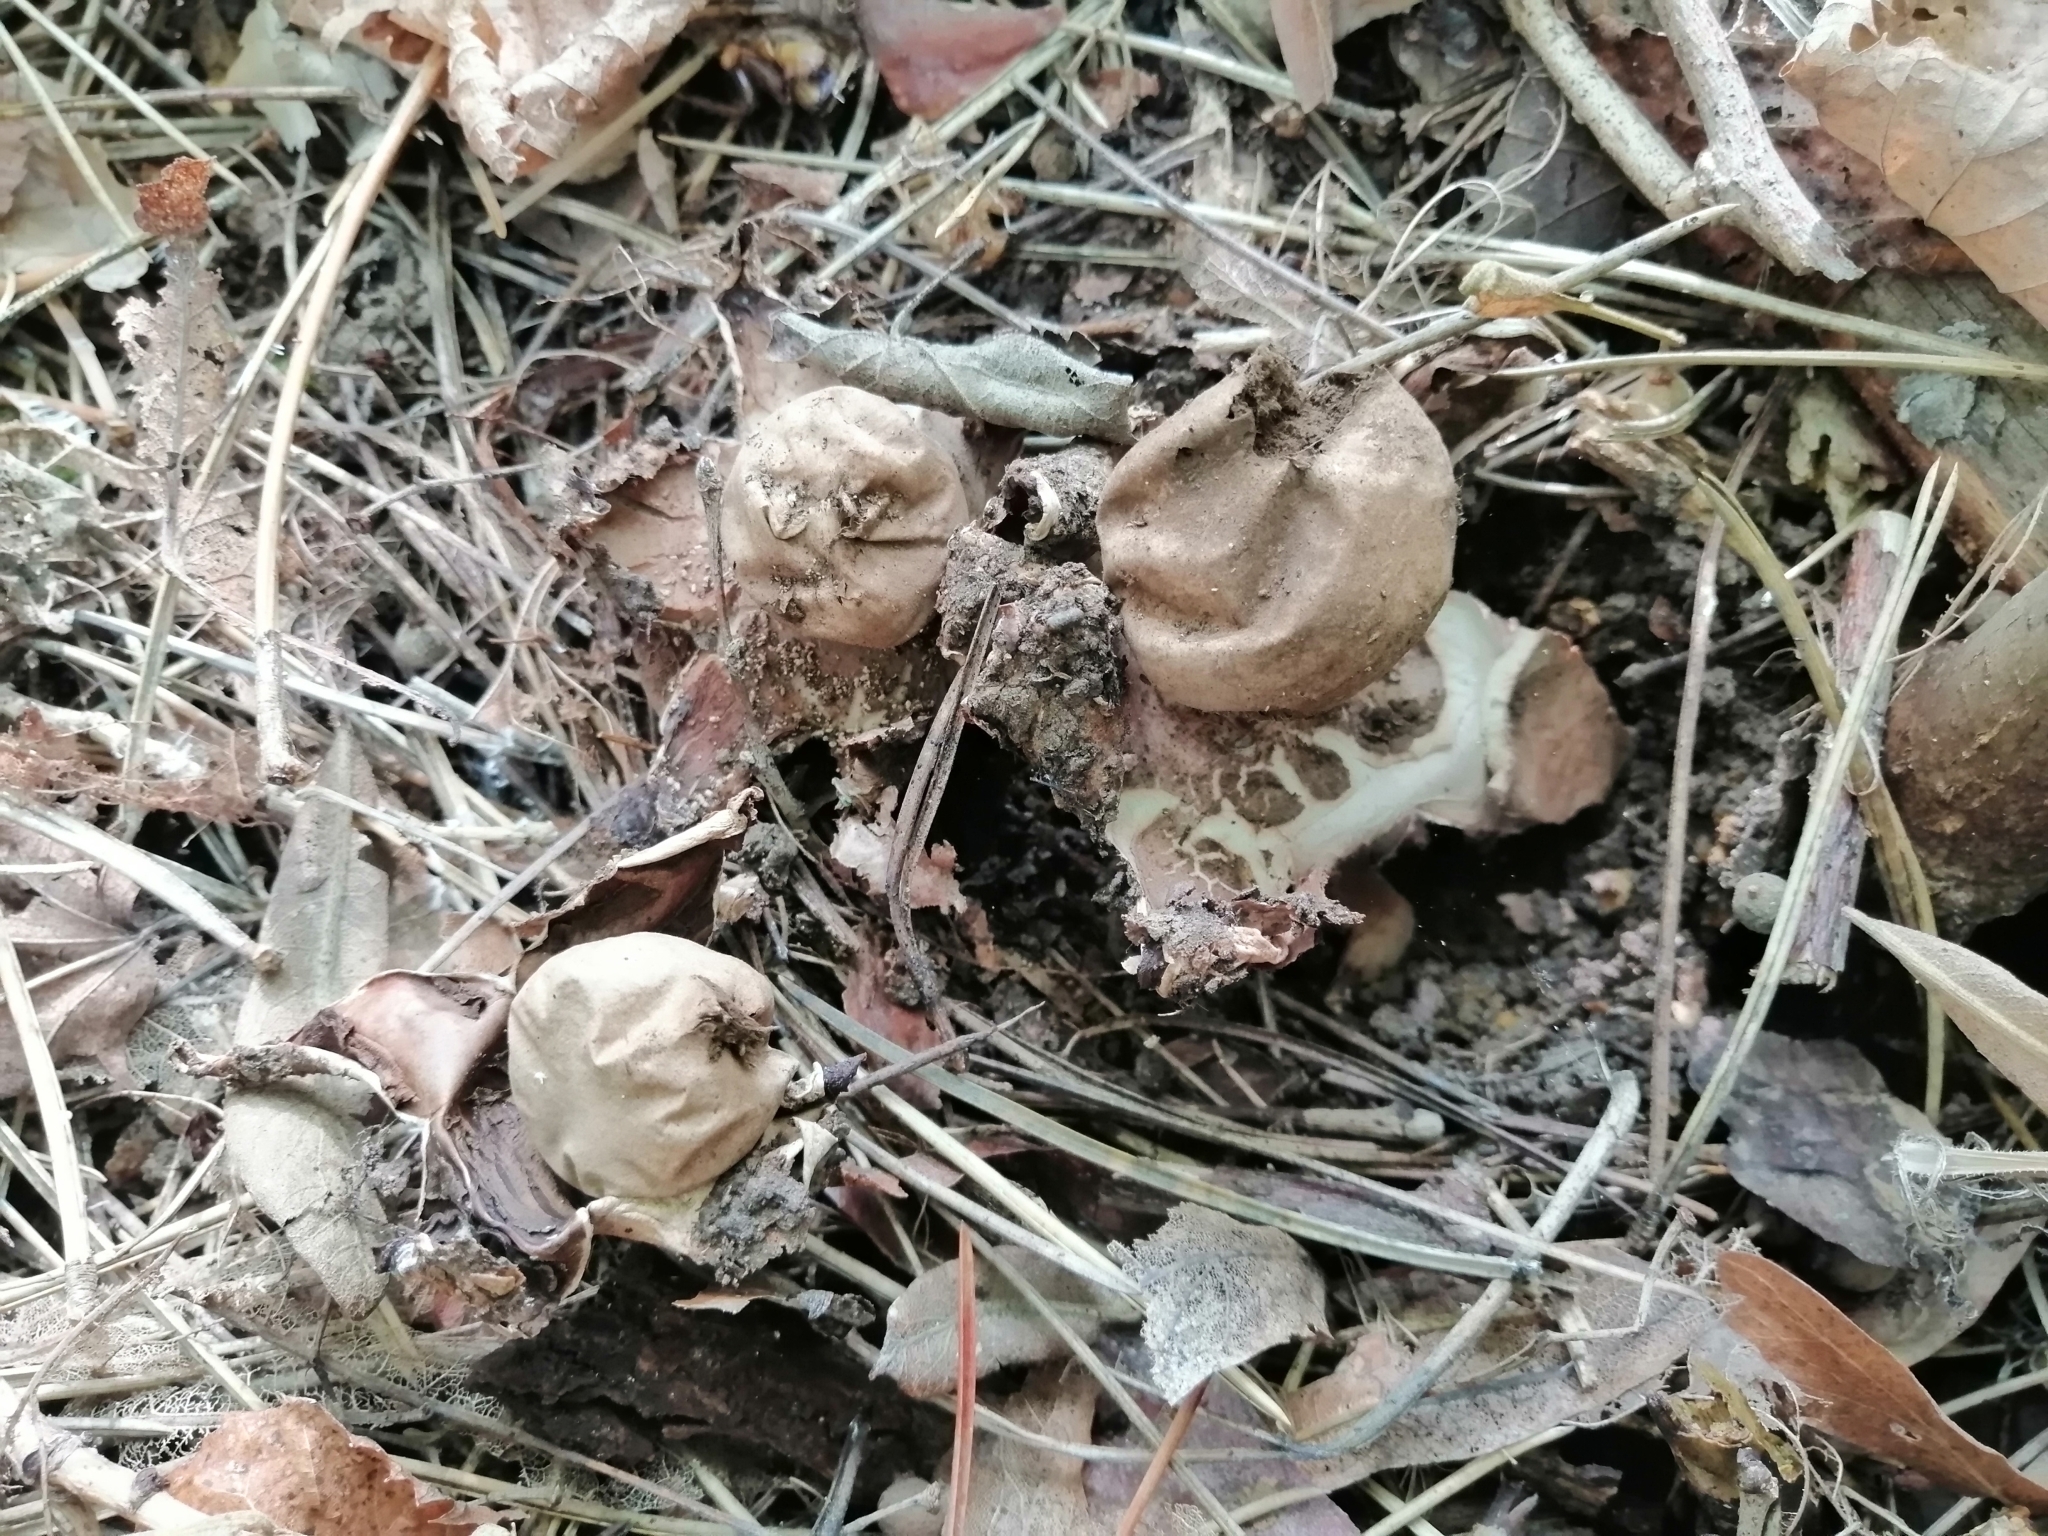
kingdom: Fungi
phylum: Basidiomycota
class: Agaricomycetes
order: Geastrales
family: Geastraceae
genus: Geastrum
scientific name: Geastrum rufescens
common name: Rosy earthstar
